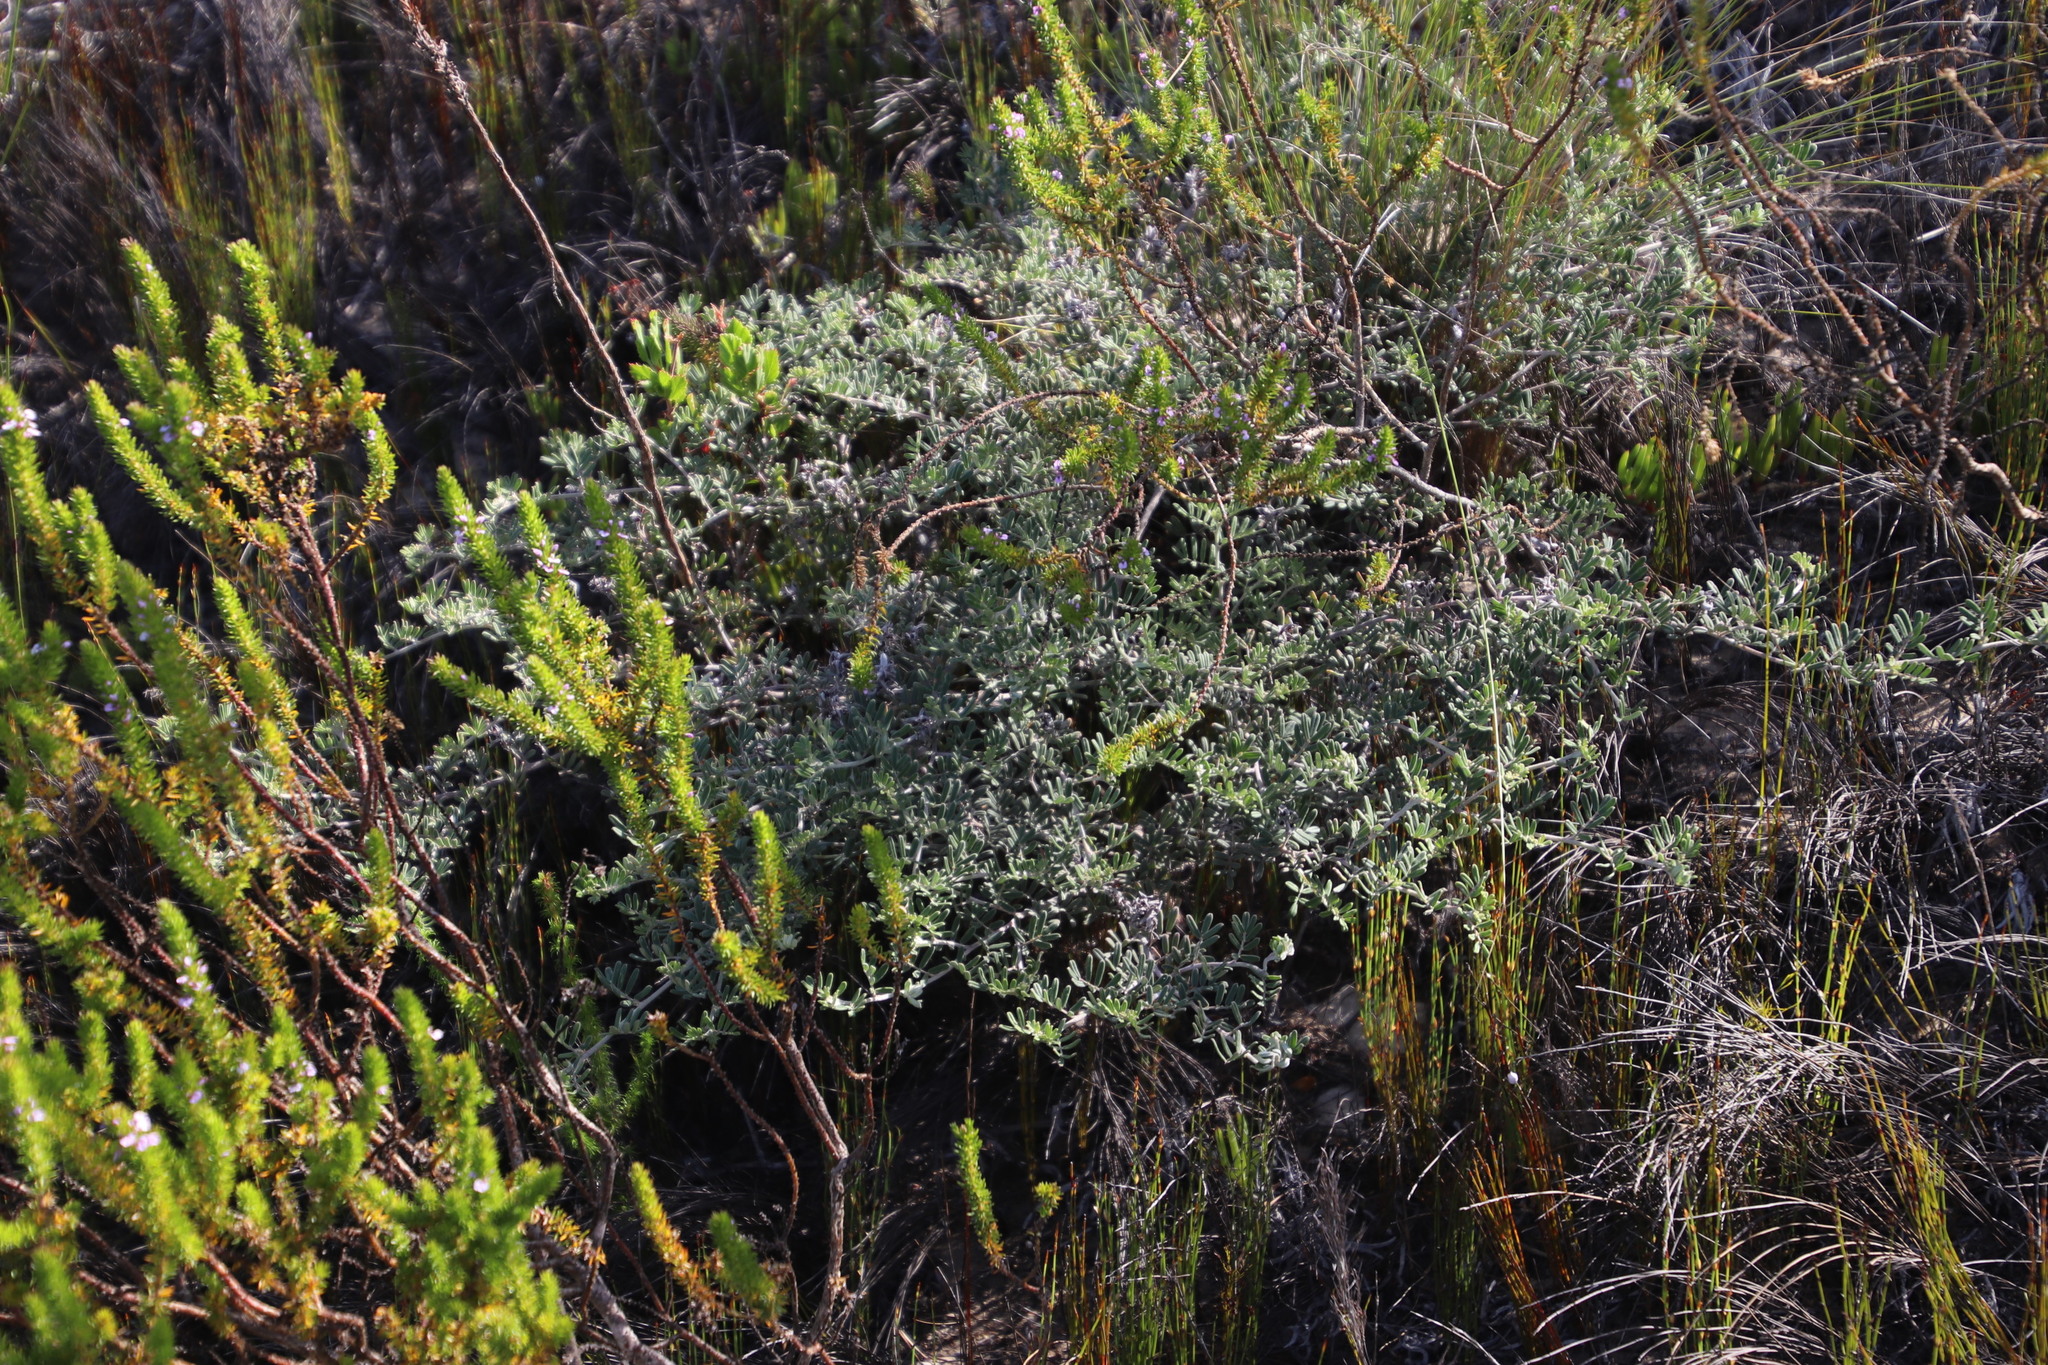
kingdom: Plantae
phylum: Tracheophyta
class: Magnoliopsida
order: Fabales
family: Fabaceae
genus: Microcharis
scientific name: Microcharis praetermissa
